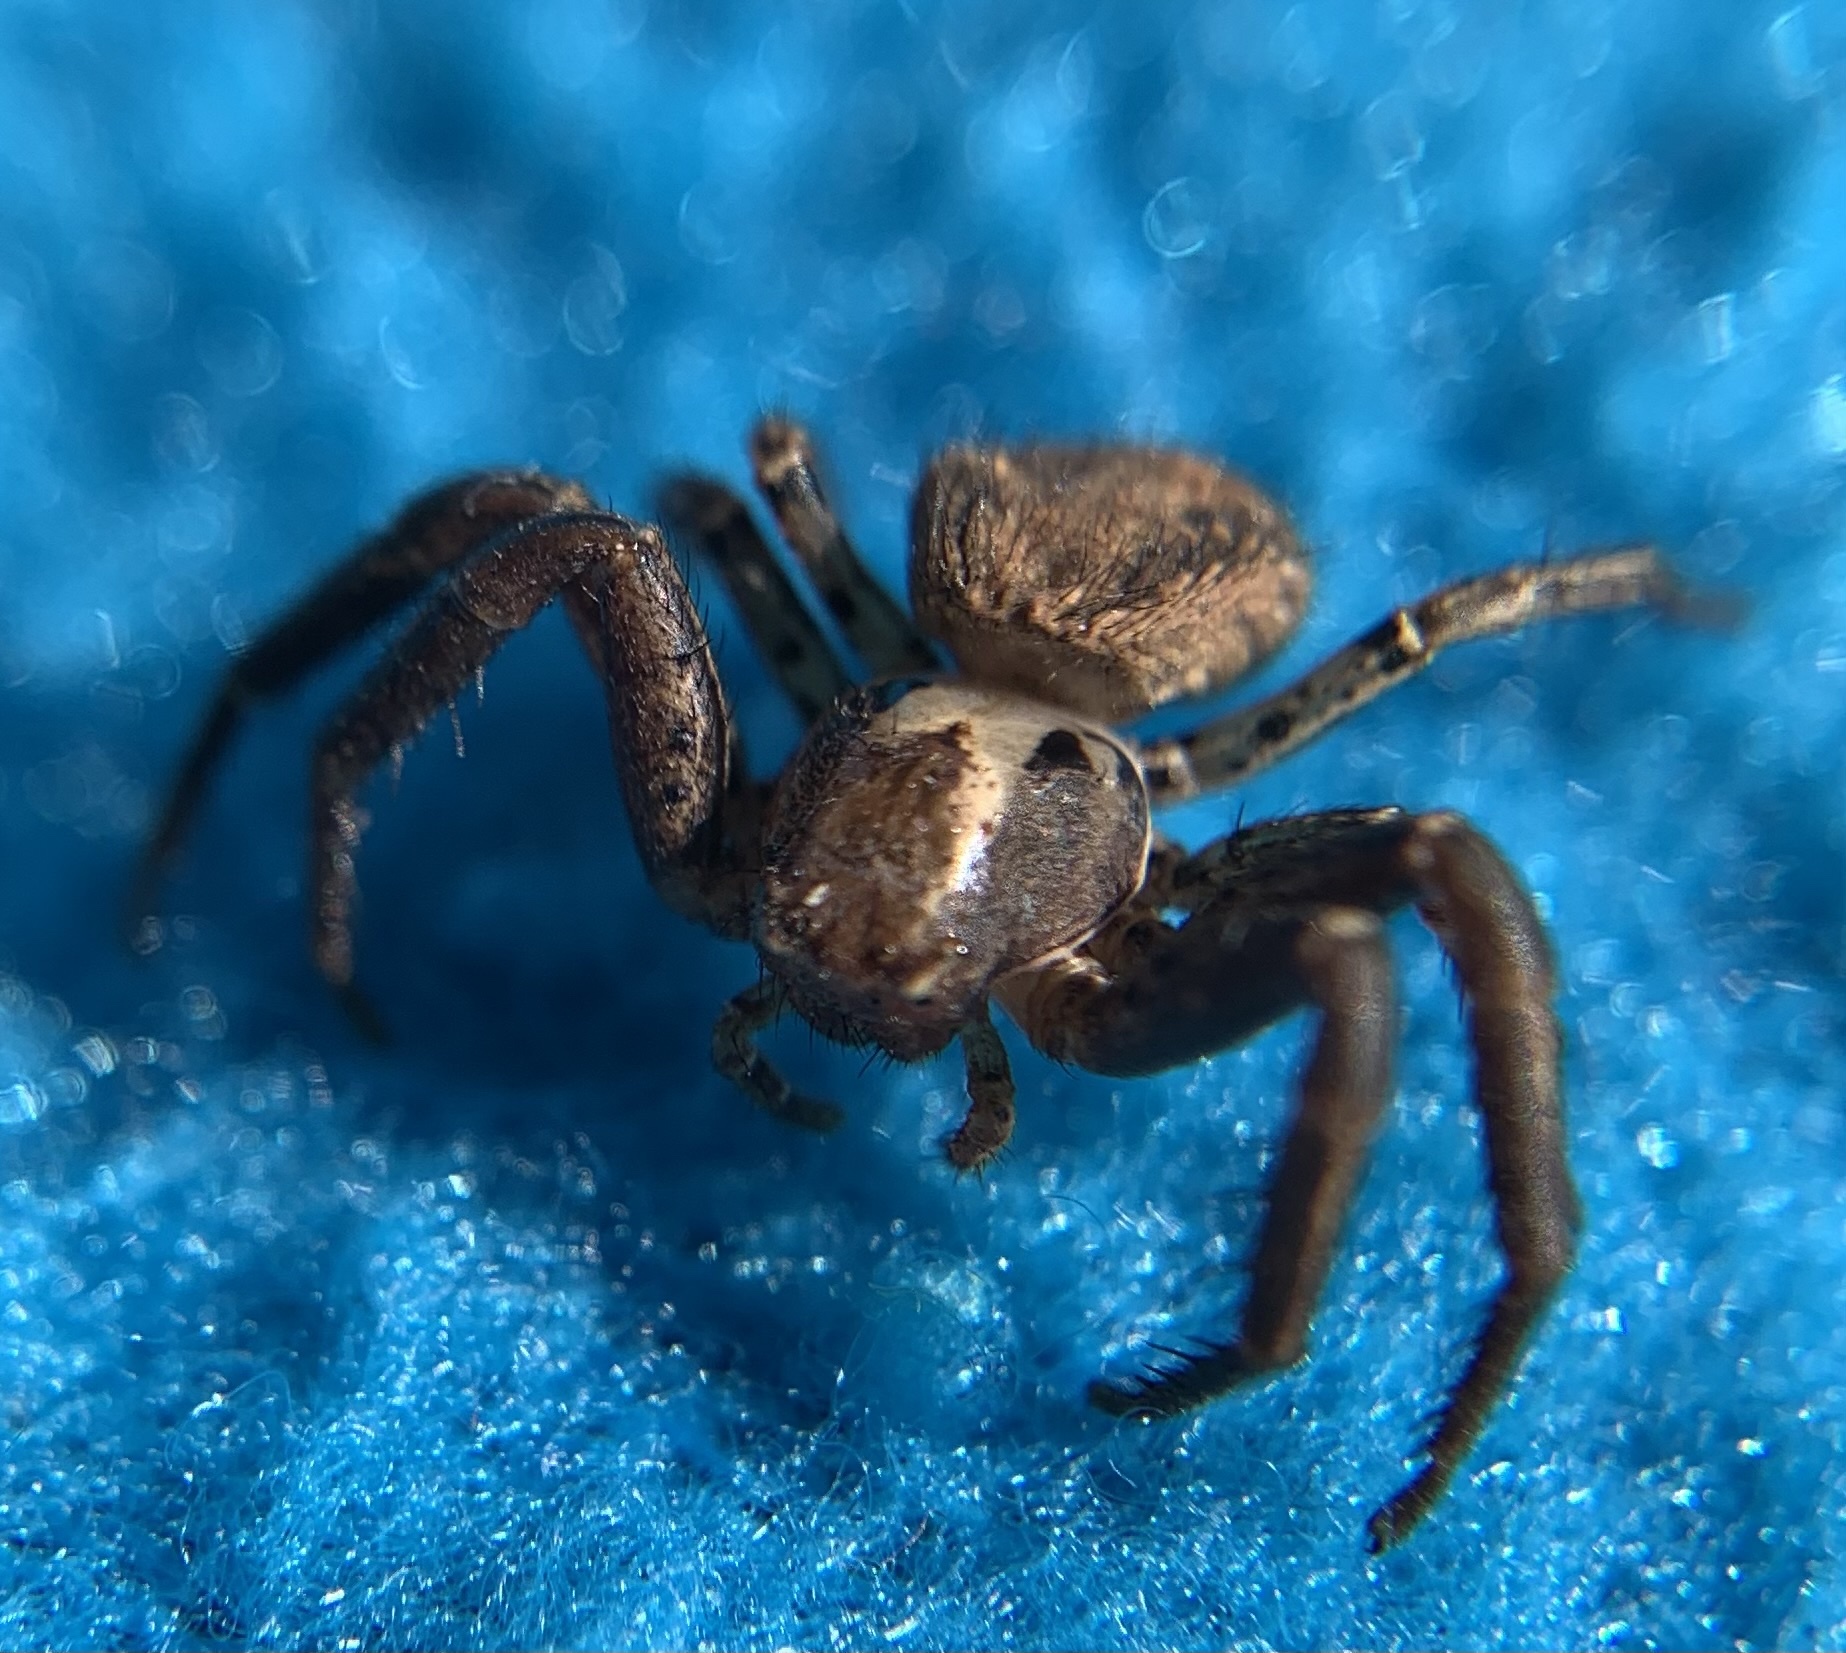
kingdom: Animalia
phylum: Arthropoda
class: Arachnida
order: Araneae
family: Thomisidae
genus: Xysticus
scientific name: Xysticus
